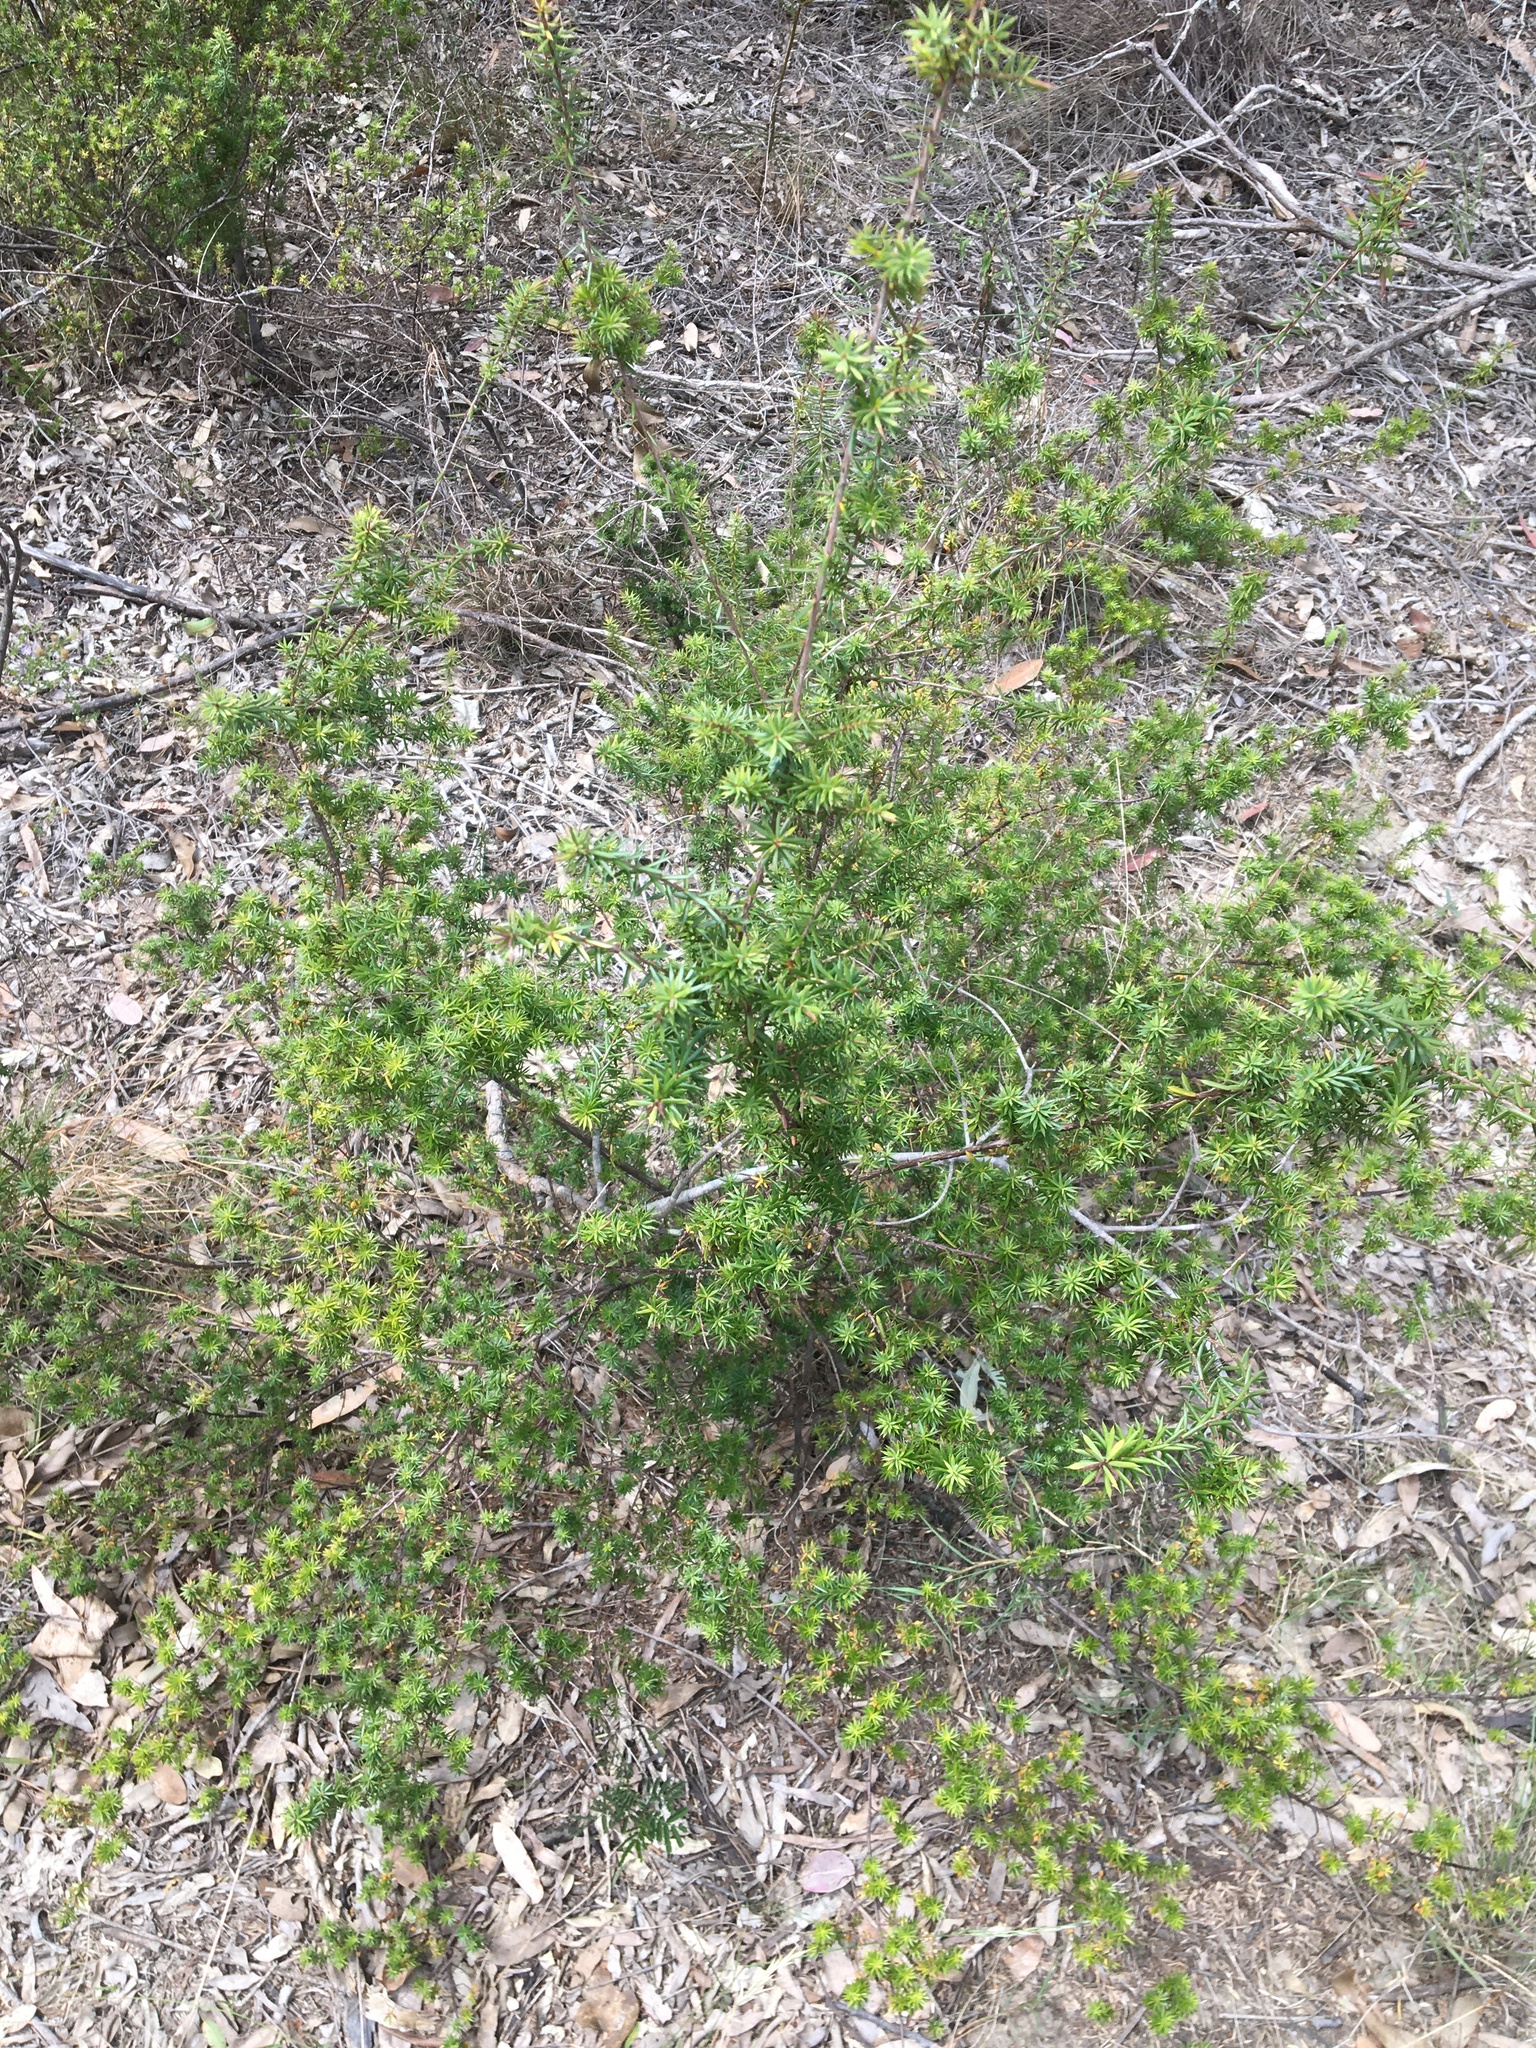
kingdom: Plantae
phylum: Tracheophyta
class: Magnoliopsida
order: Ericales
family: Ericaceae
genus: Styphelia
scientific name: Styphelia sieberi
